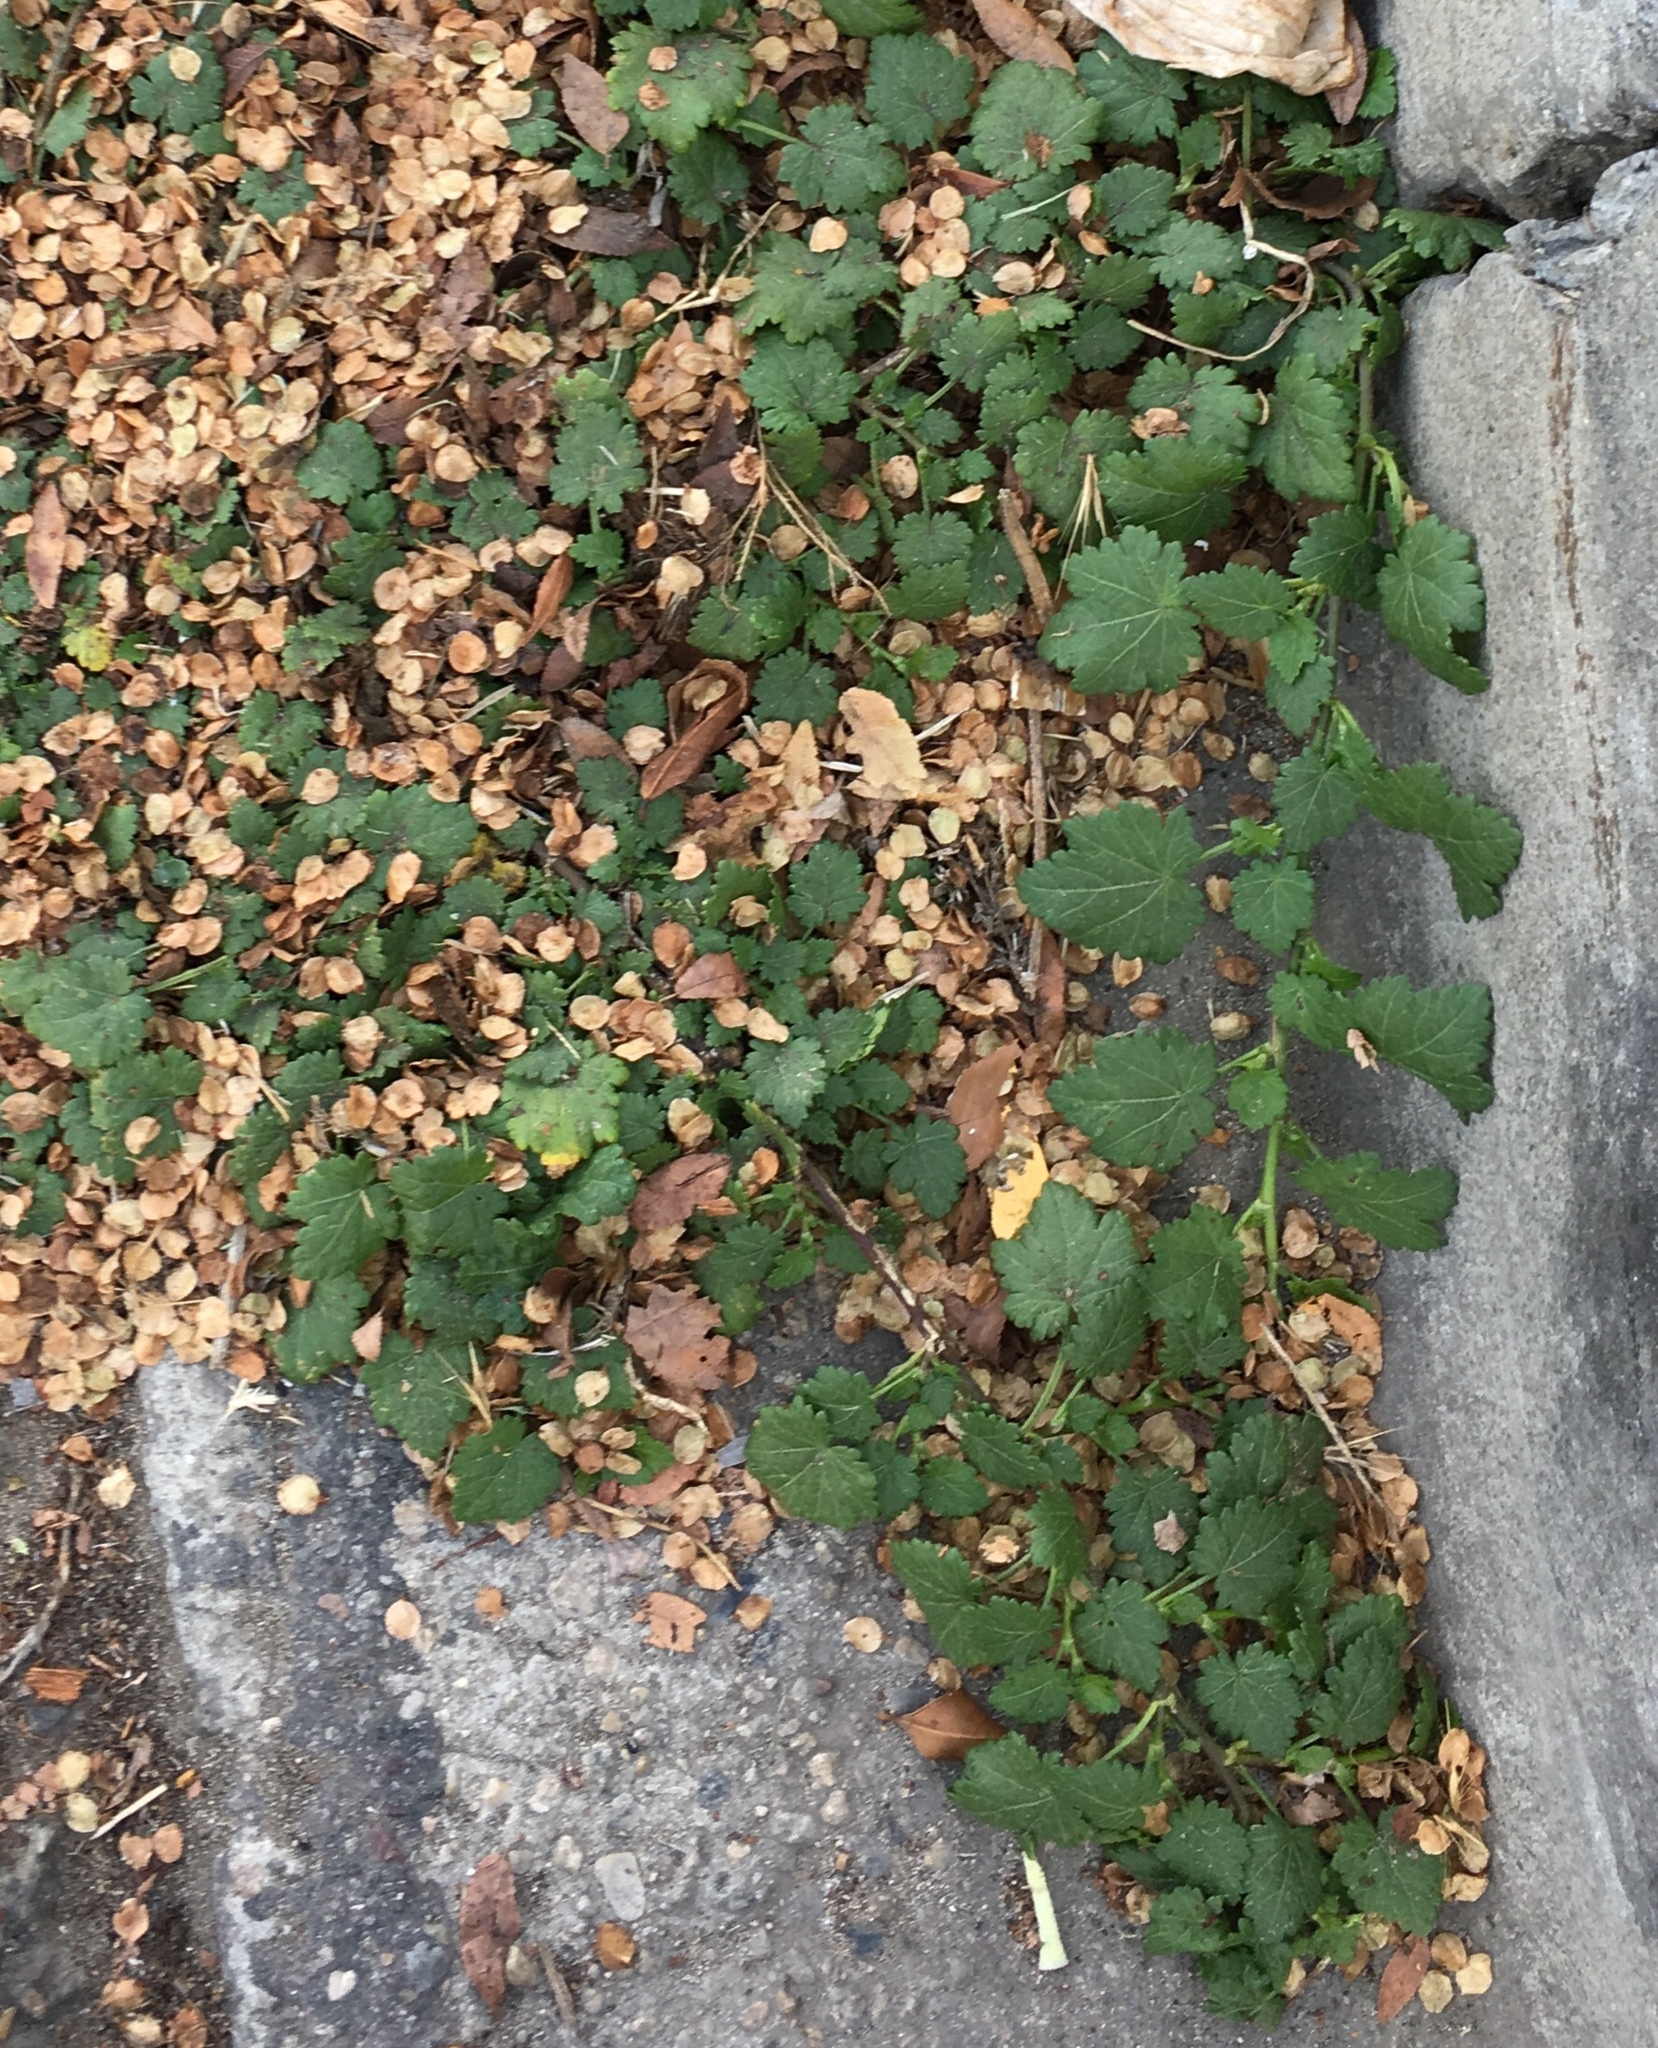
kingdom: Plantae
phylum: Tracheophyta
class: Magnoliopsida
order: Malvales
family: Malvaceae
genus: Modiola
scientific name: Modiola caroliniana
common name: Carolina bristlemallow
